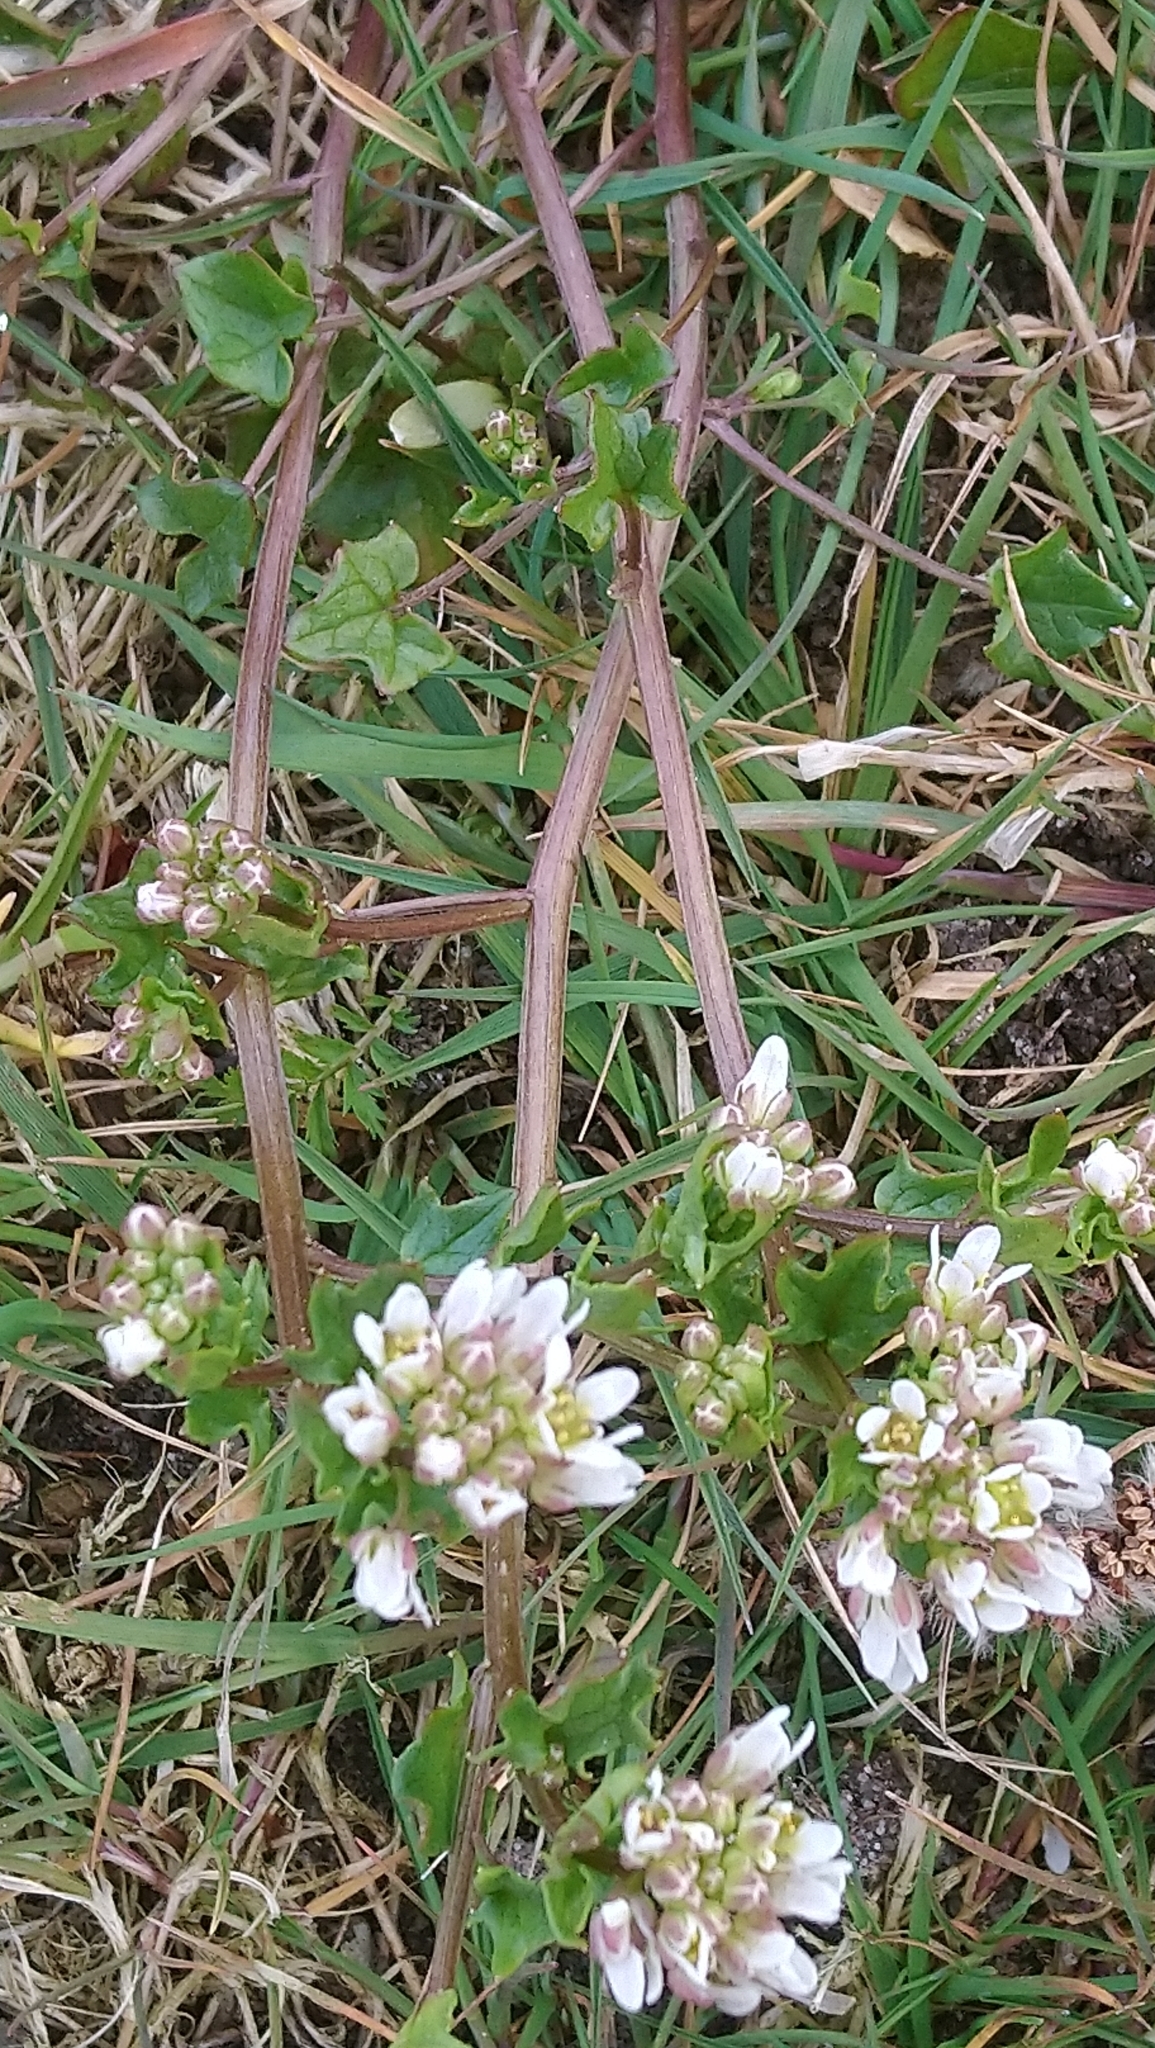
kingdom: Plantae
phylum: Tracheophyta
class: Magnoliopsida
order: Brassicales
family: Brassicaceae
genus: Cochlearia
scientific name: Cochlearia officinalis
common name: Scurvy-grass
